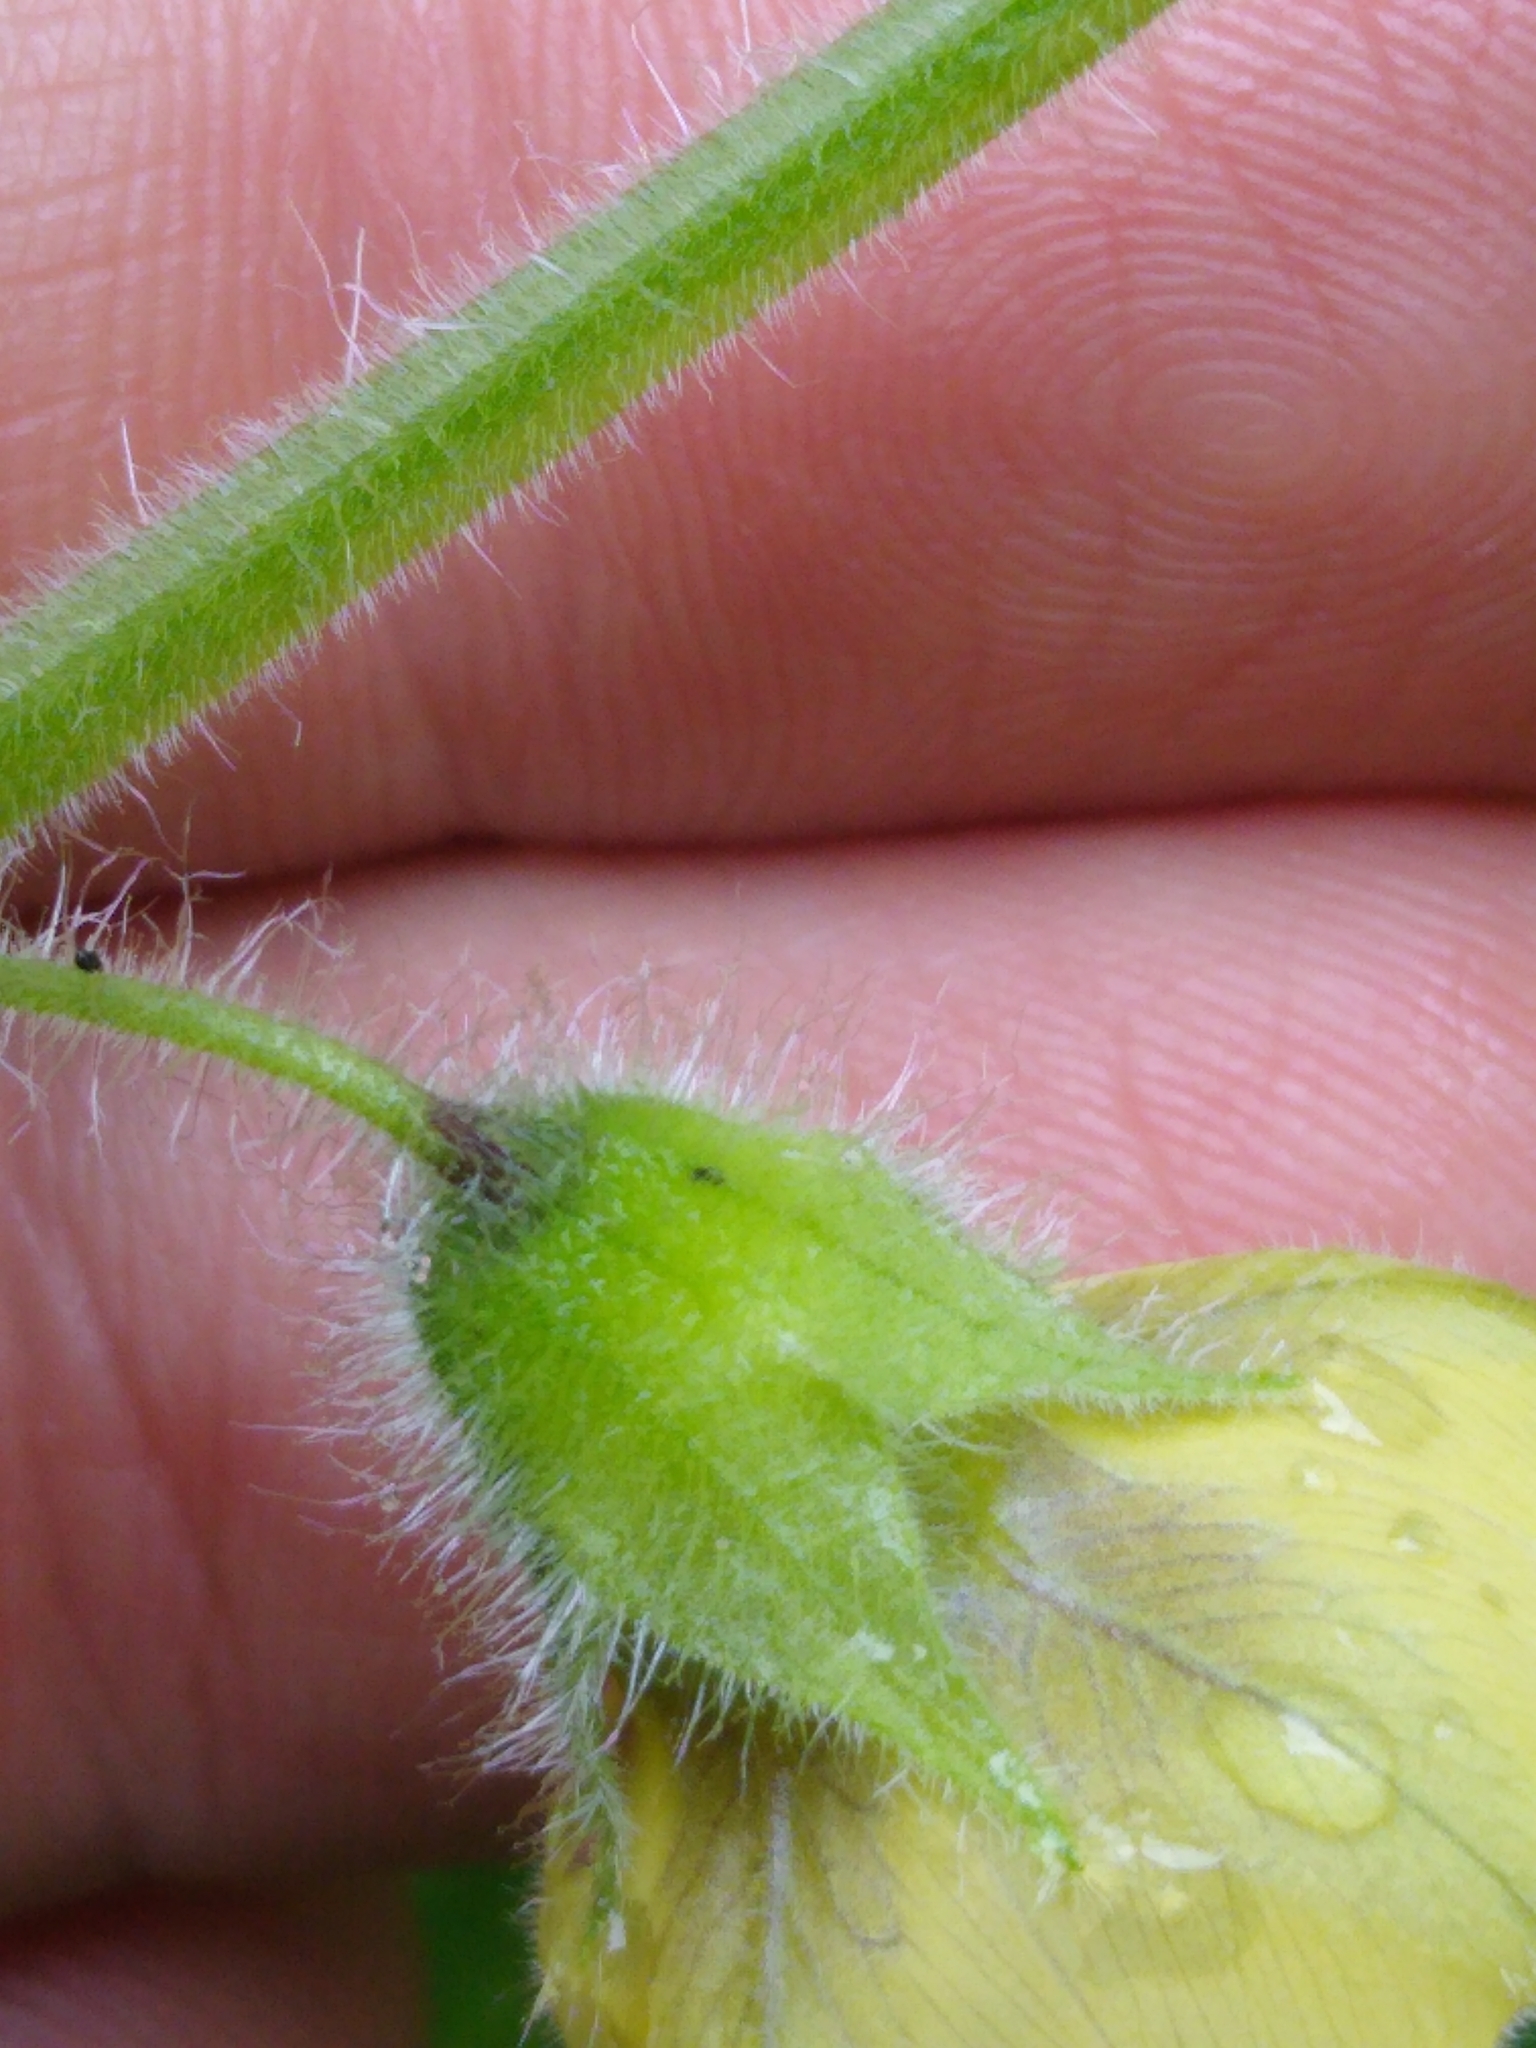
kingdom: Plantae
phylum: Tracheophyta
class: Magnoliopsida
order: Solanales
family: Solanaceae
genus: Physalis
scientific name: Physalis heterophylla
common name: Clammy ground-cherry
